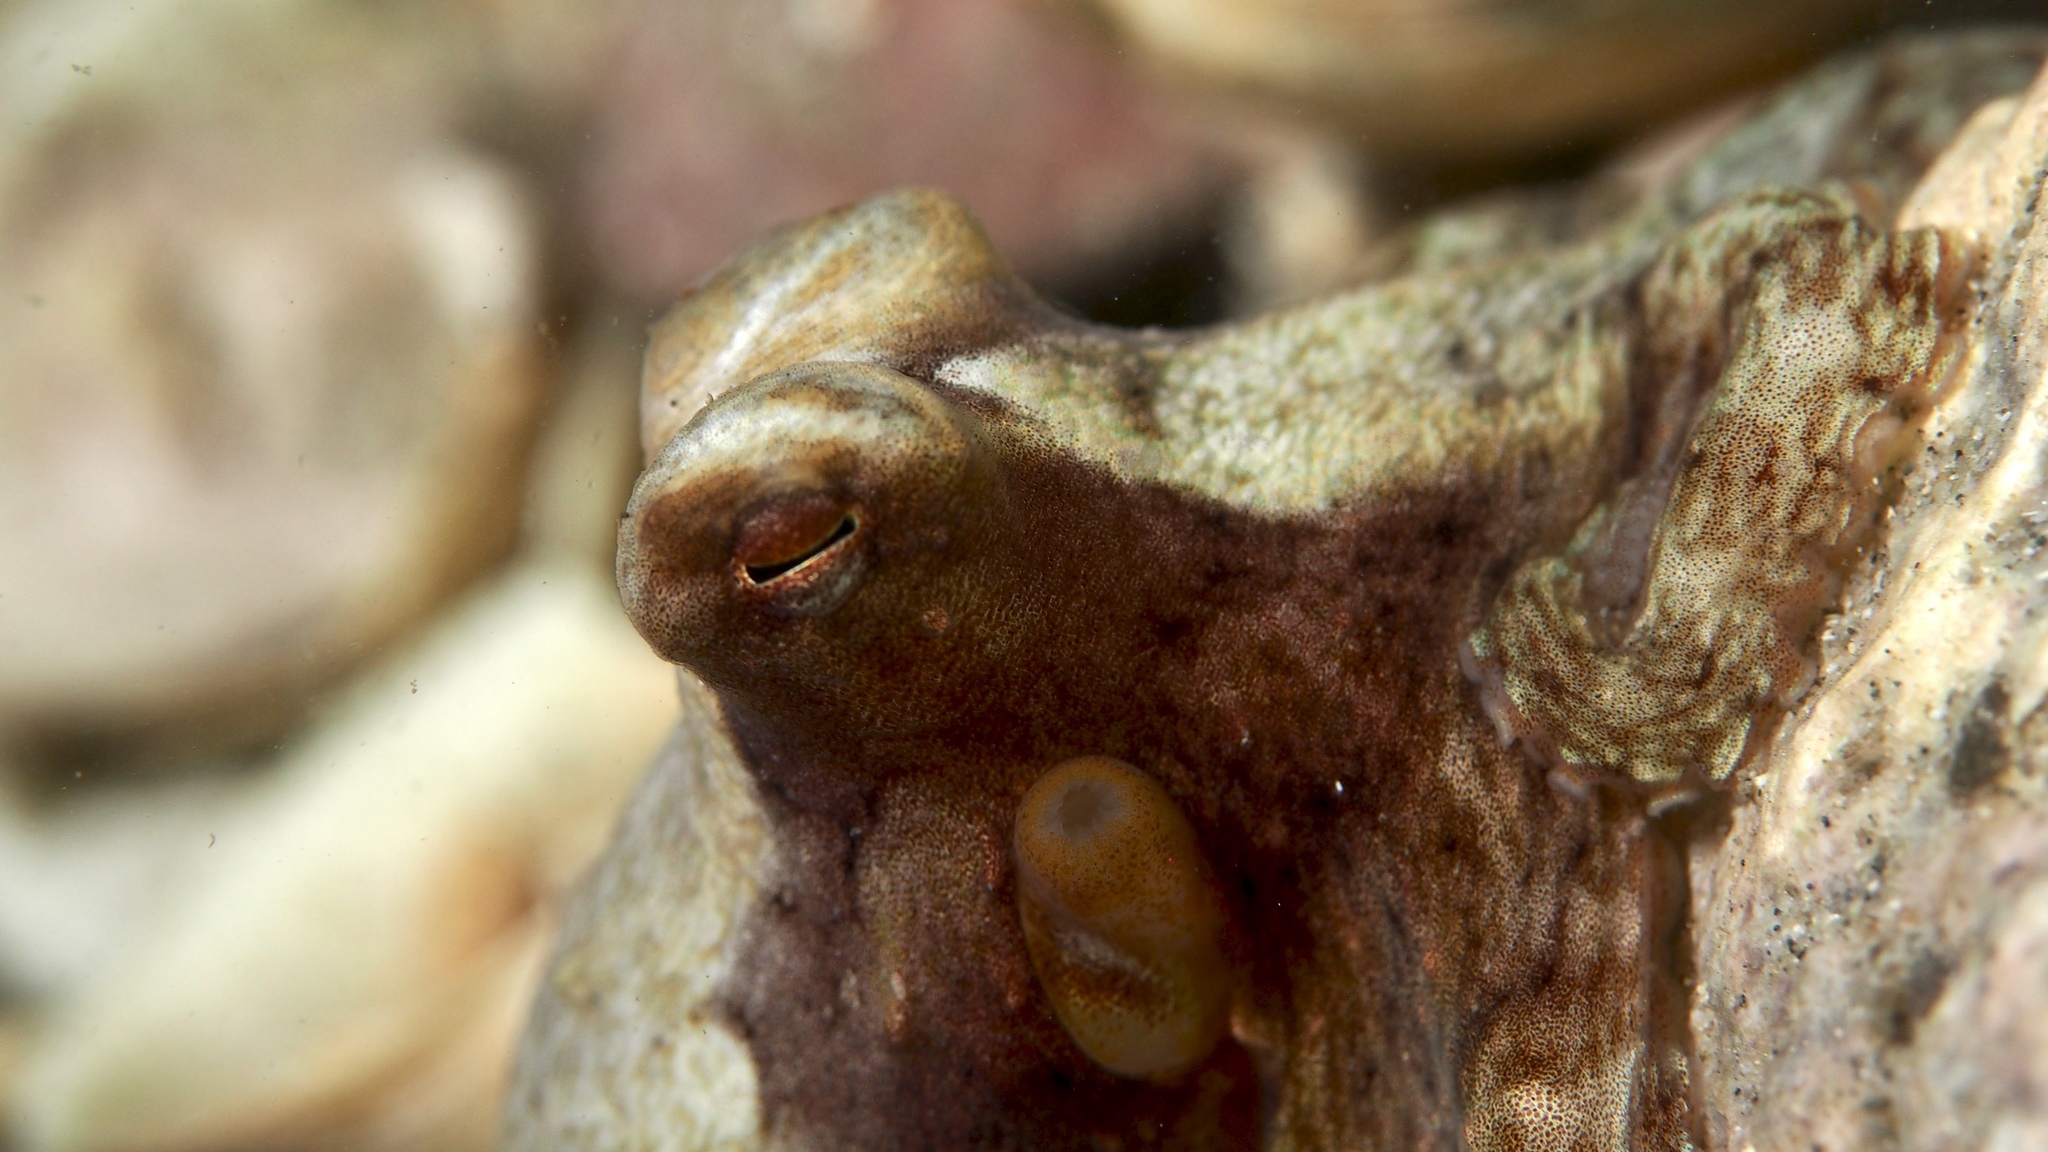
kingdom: Animalia
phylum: Mollusca
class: Cephalopoda
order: Octopoda
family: Octopodidae
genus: Octopus
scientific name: Octopus berrima
